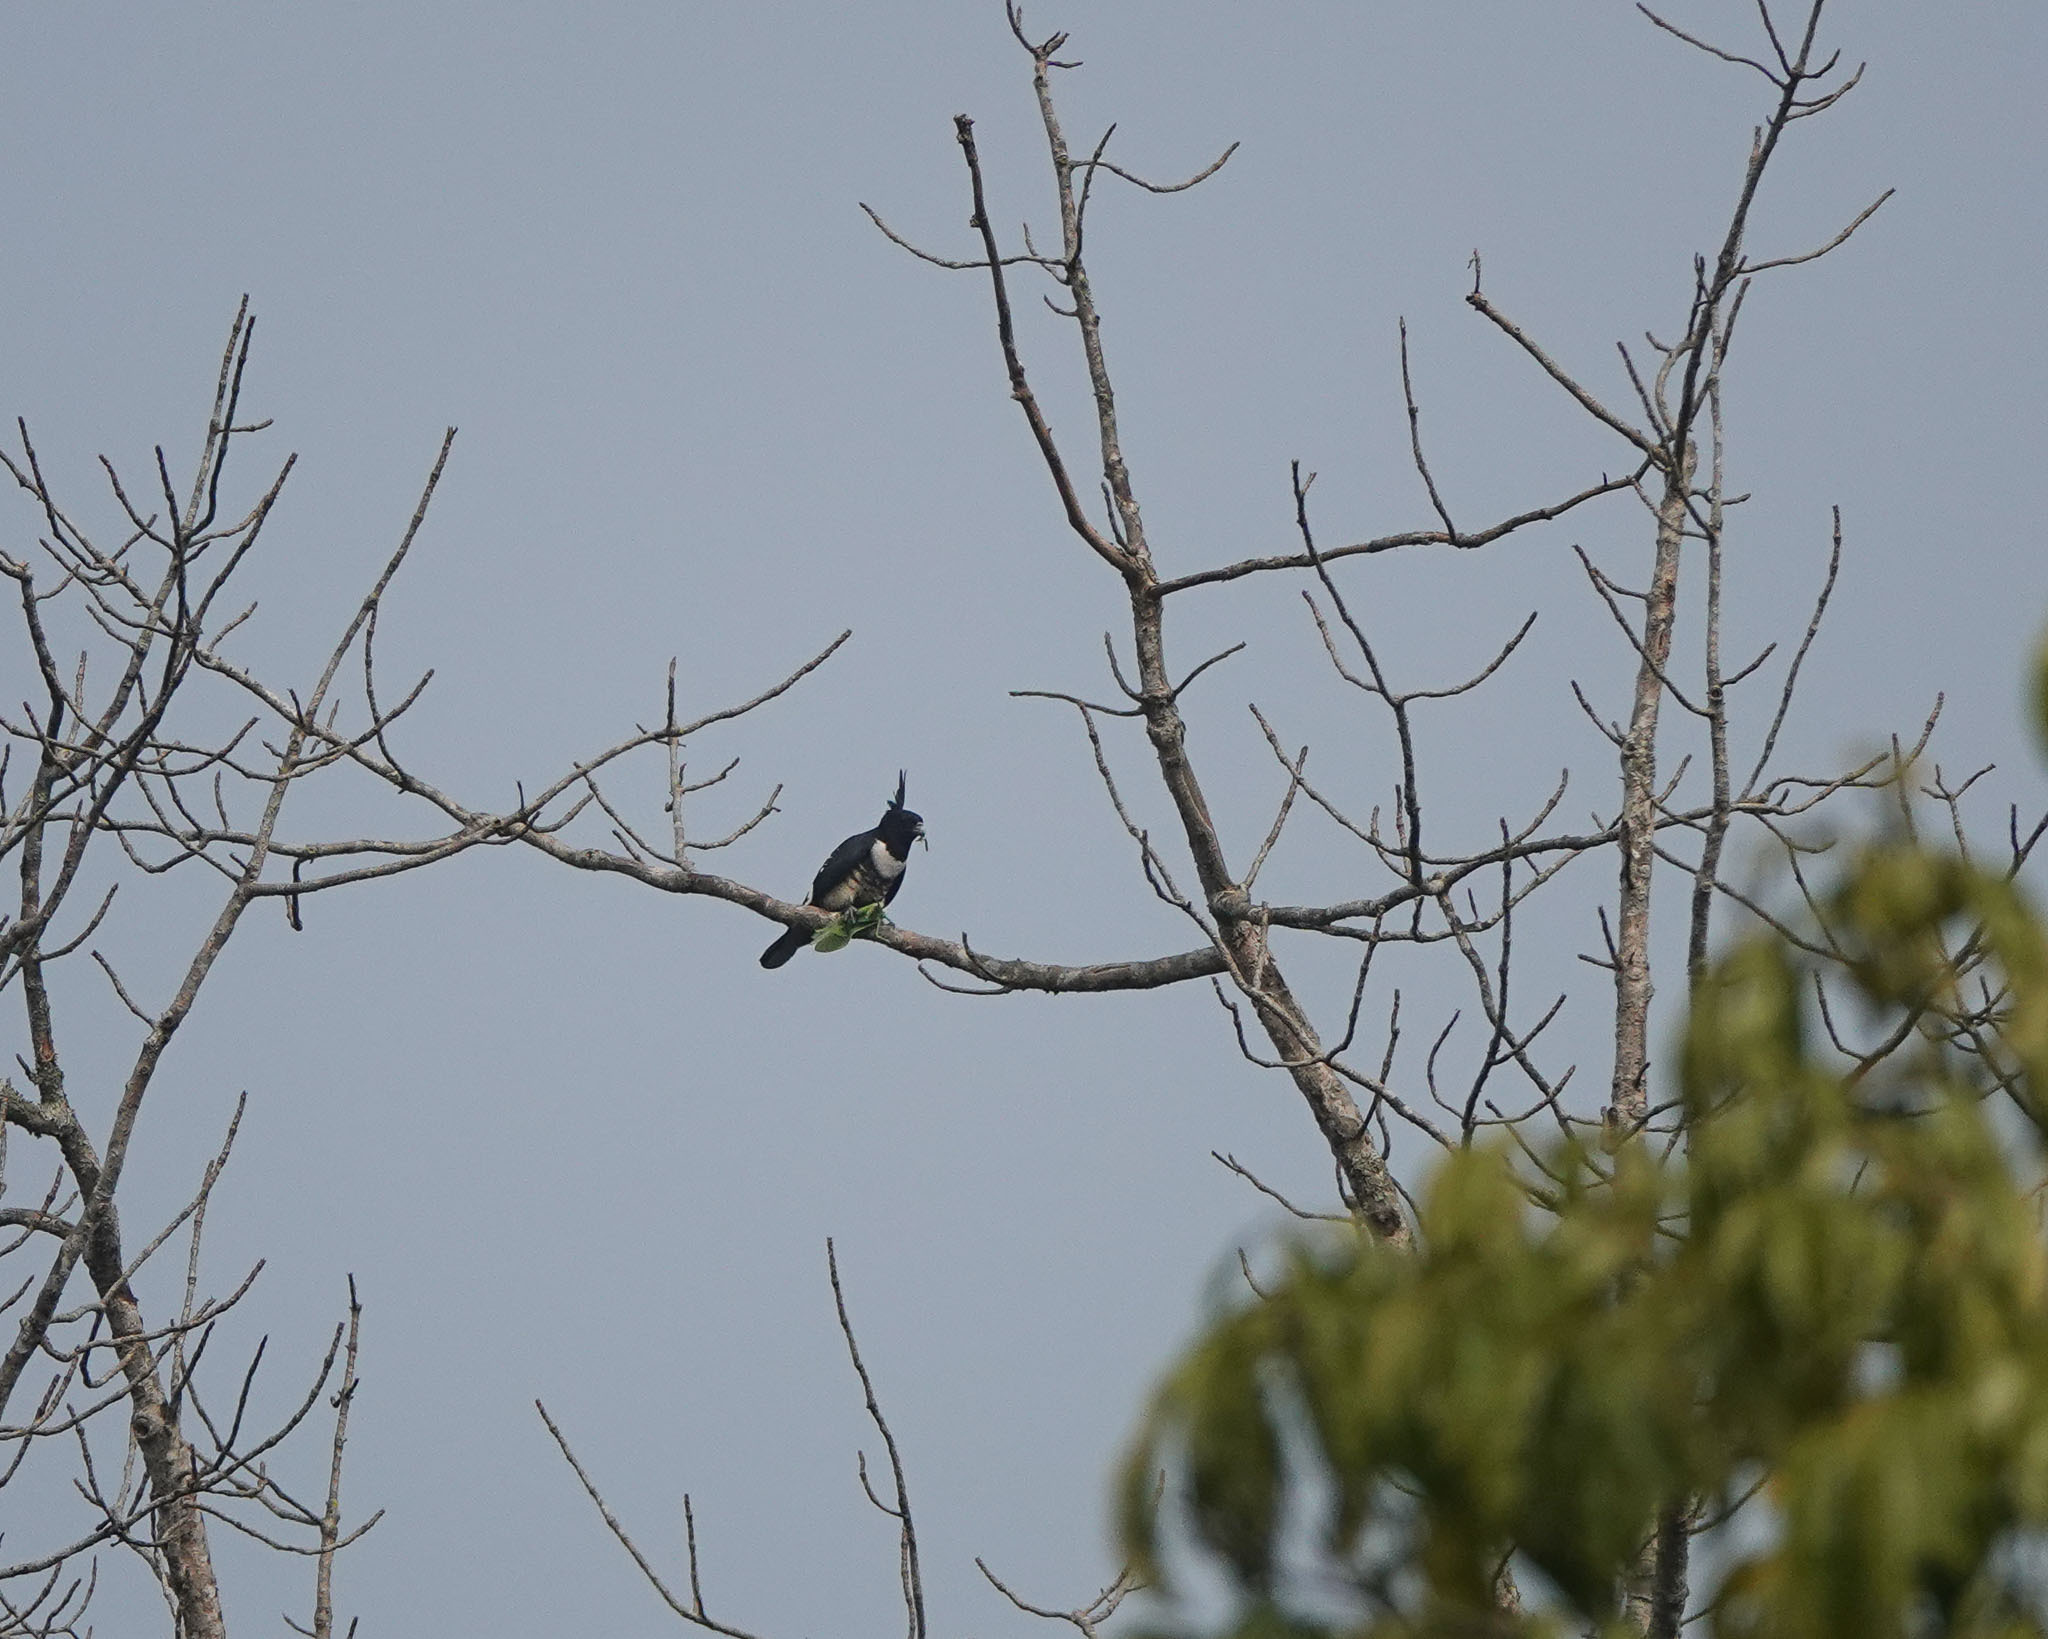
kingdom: Animalia
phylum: Chordata
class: Aves
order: Accipitriformes
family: Accipitridae
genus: Aviceda
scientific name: Aviceda leuphotes
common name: Black baza
